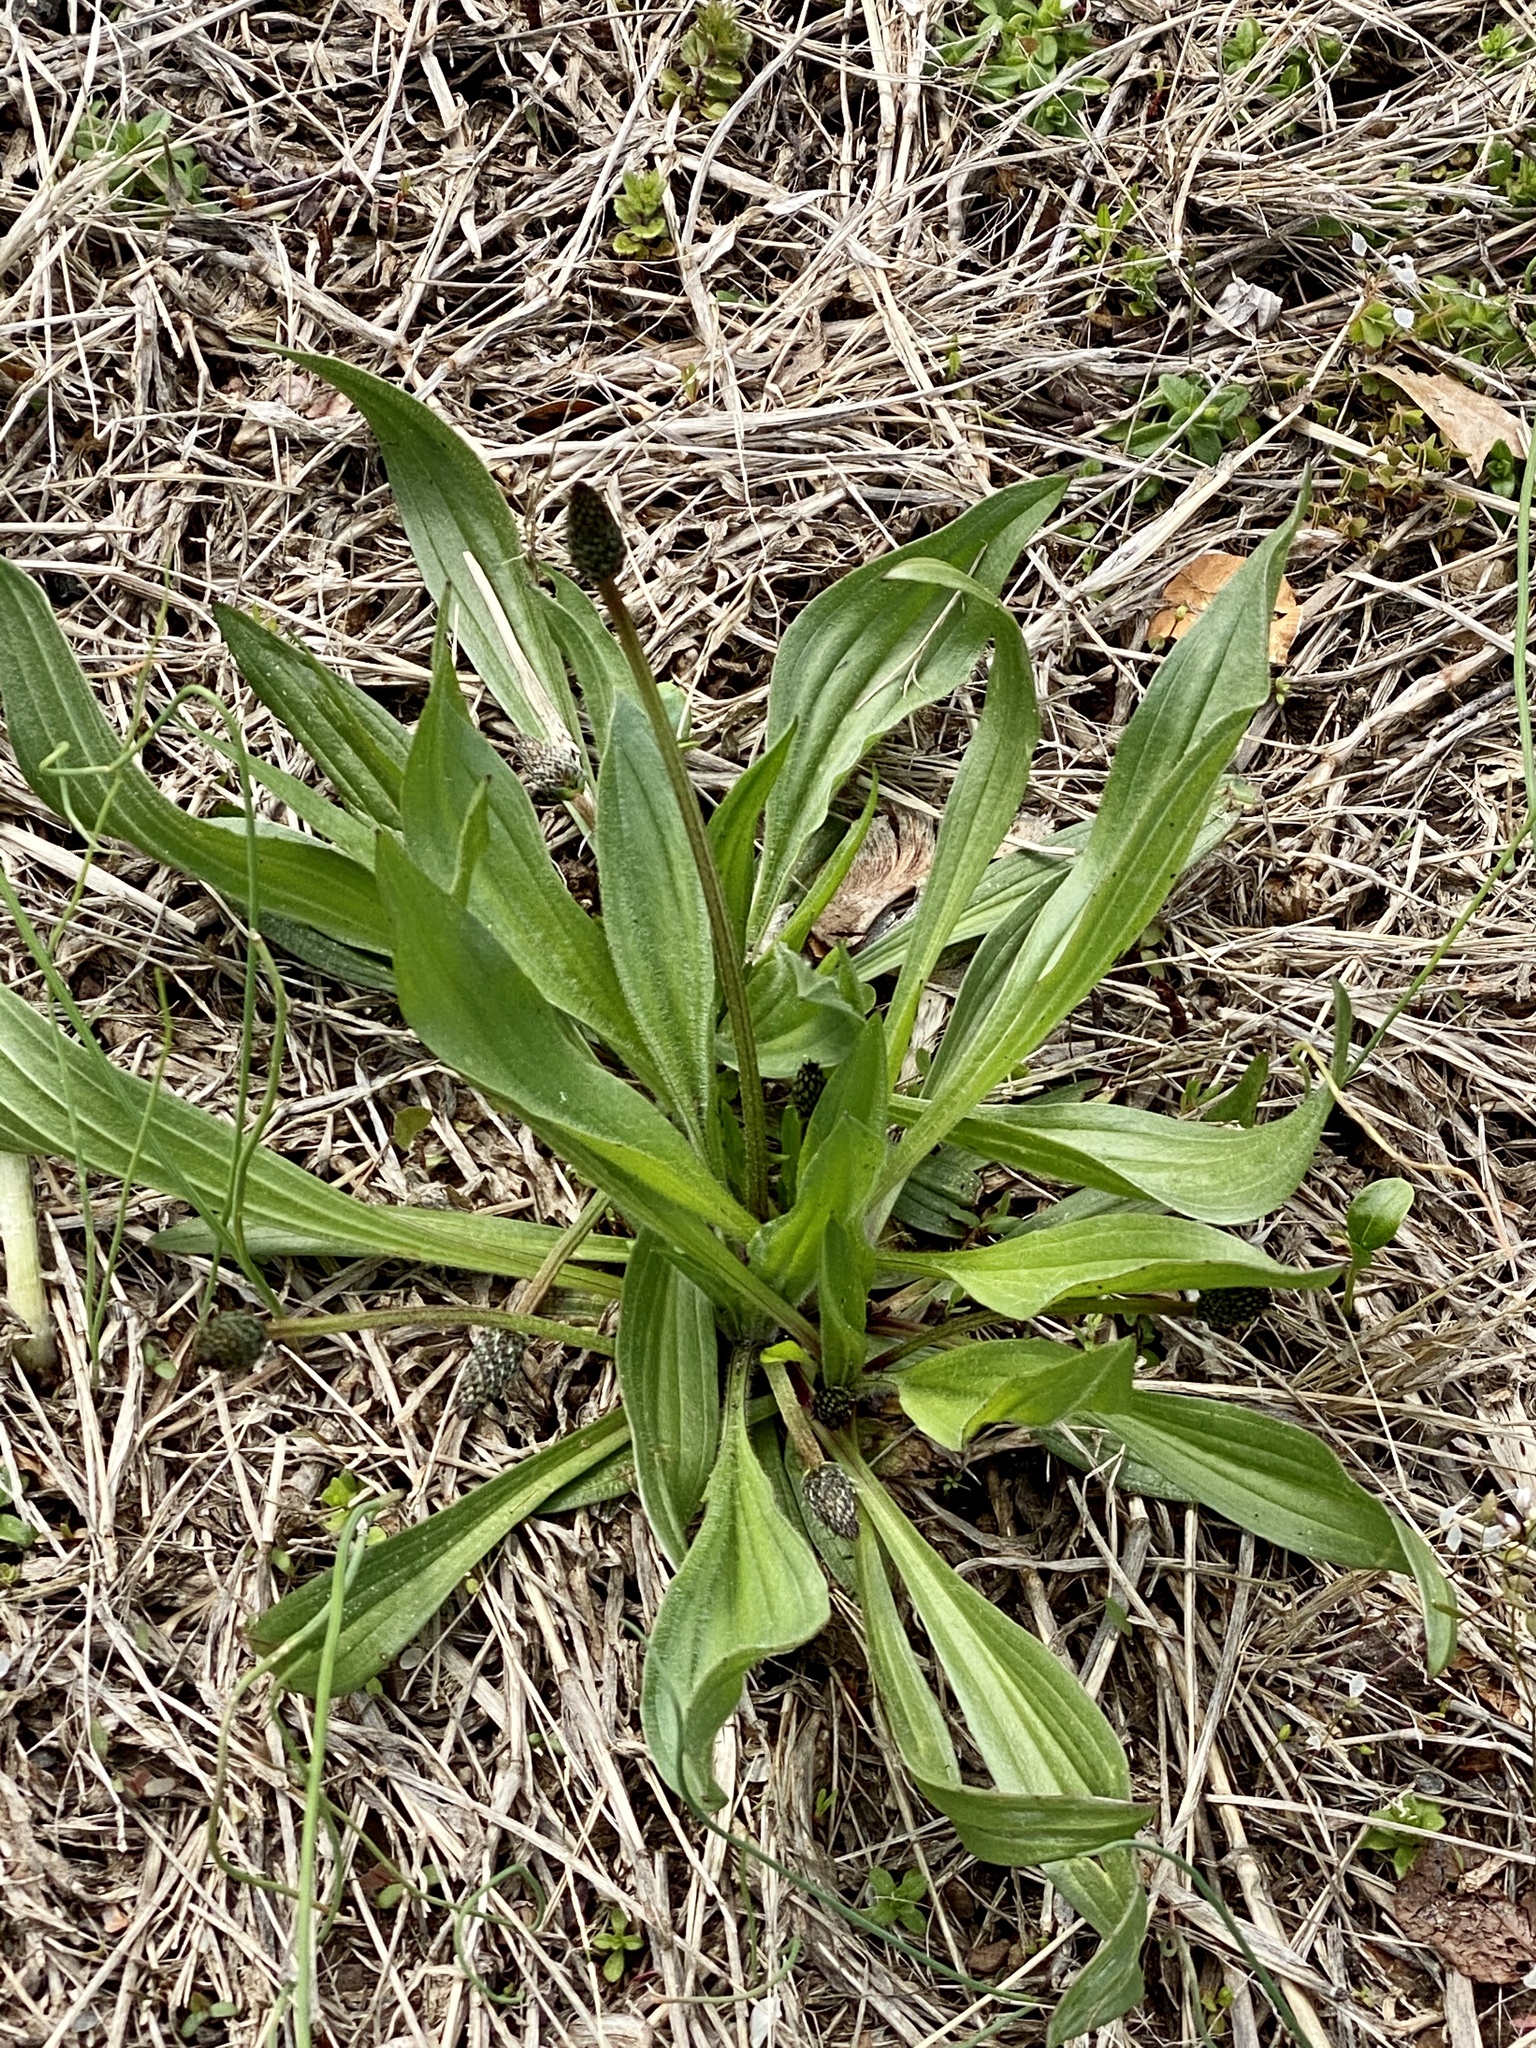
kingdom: Plantae
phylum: Tracheophyta
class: Magnoliopsida
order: Lamiales
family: Plantaginaceae
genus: Plantago
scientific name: Plantago lanceolata
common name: Ribwort plantain
